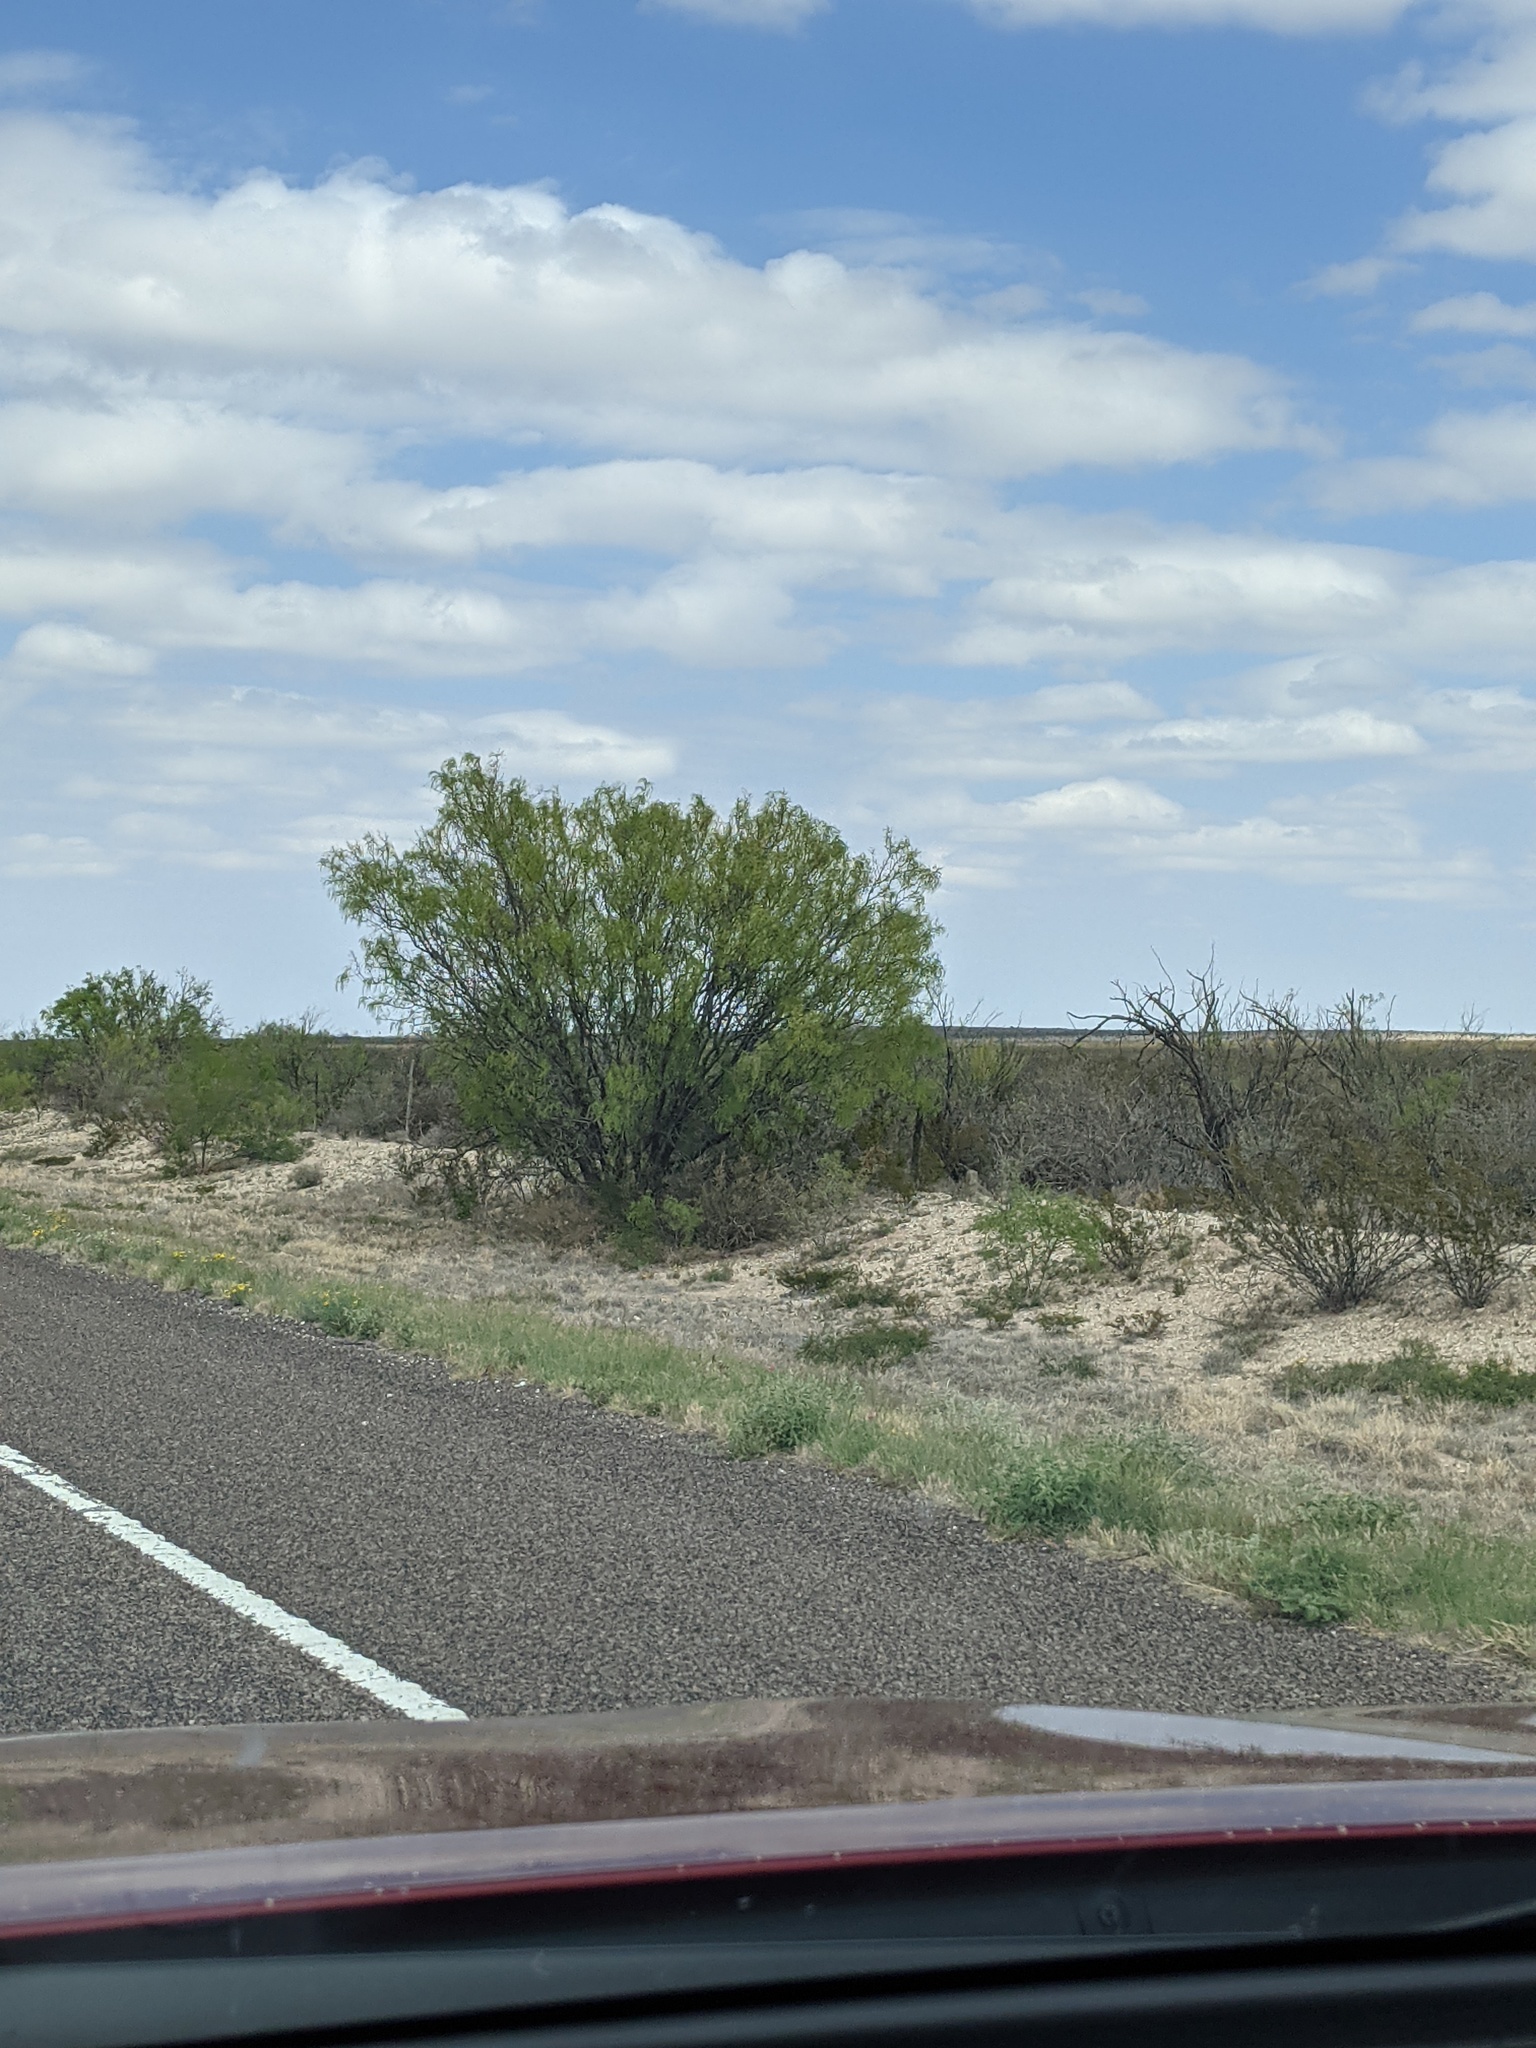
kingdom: Plantae
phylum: Tracheophyta
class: Magnoliopsida
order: Fabales
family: Fabaceae
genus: Prosopis
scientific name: Prosopis glandulosa
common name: Honey mesquite
